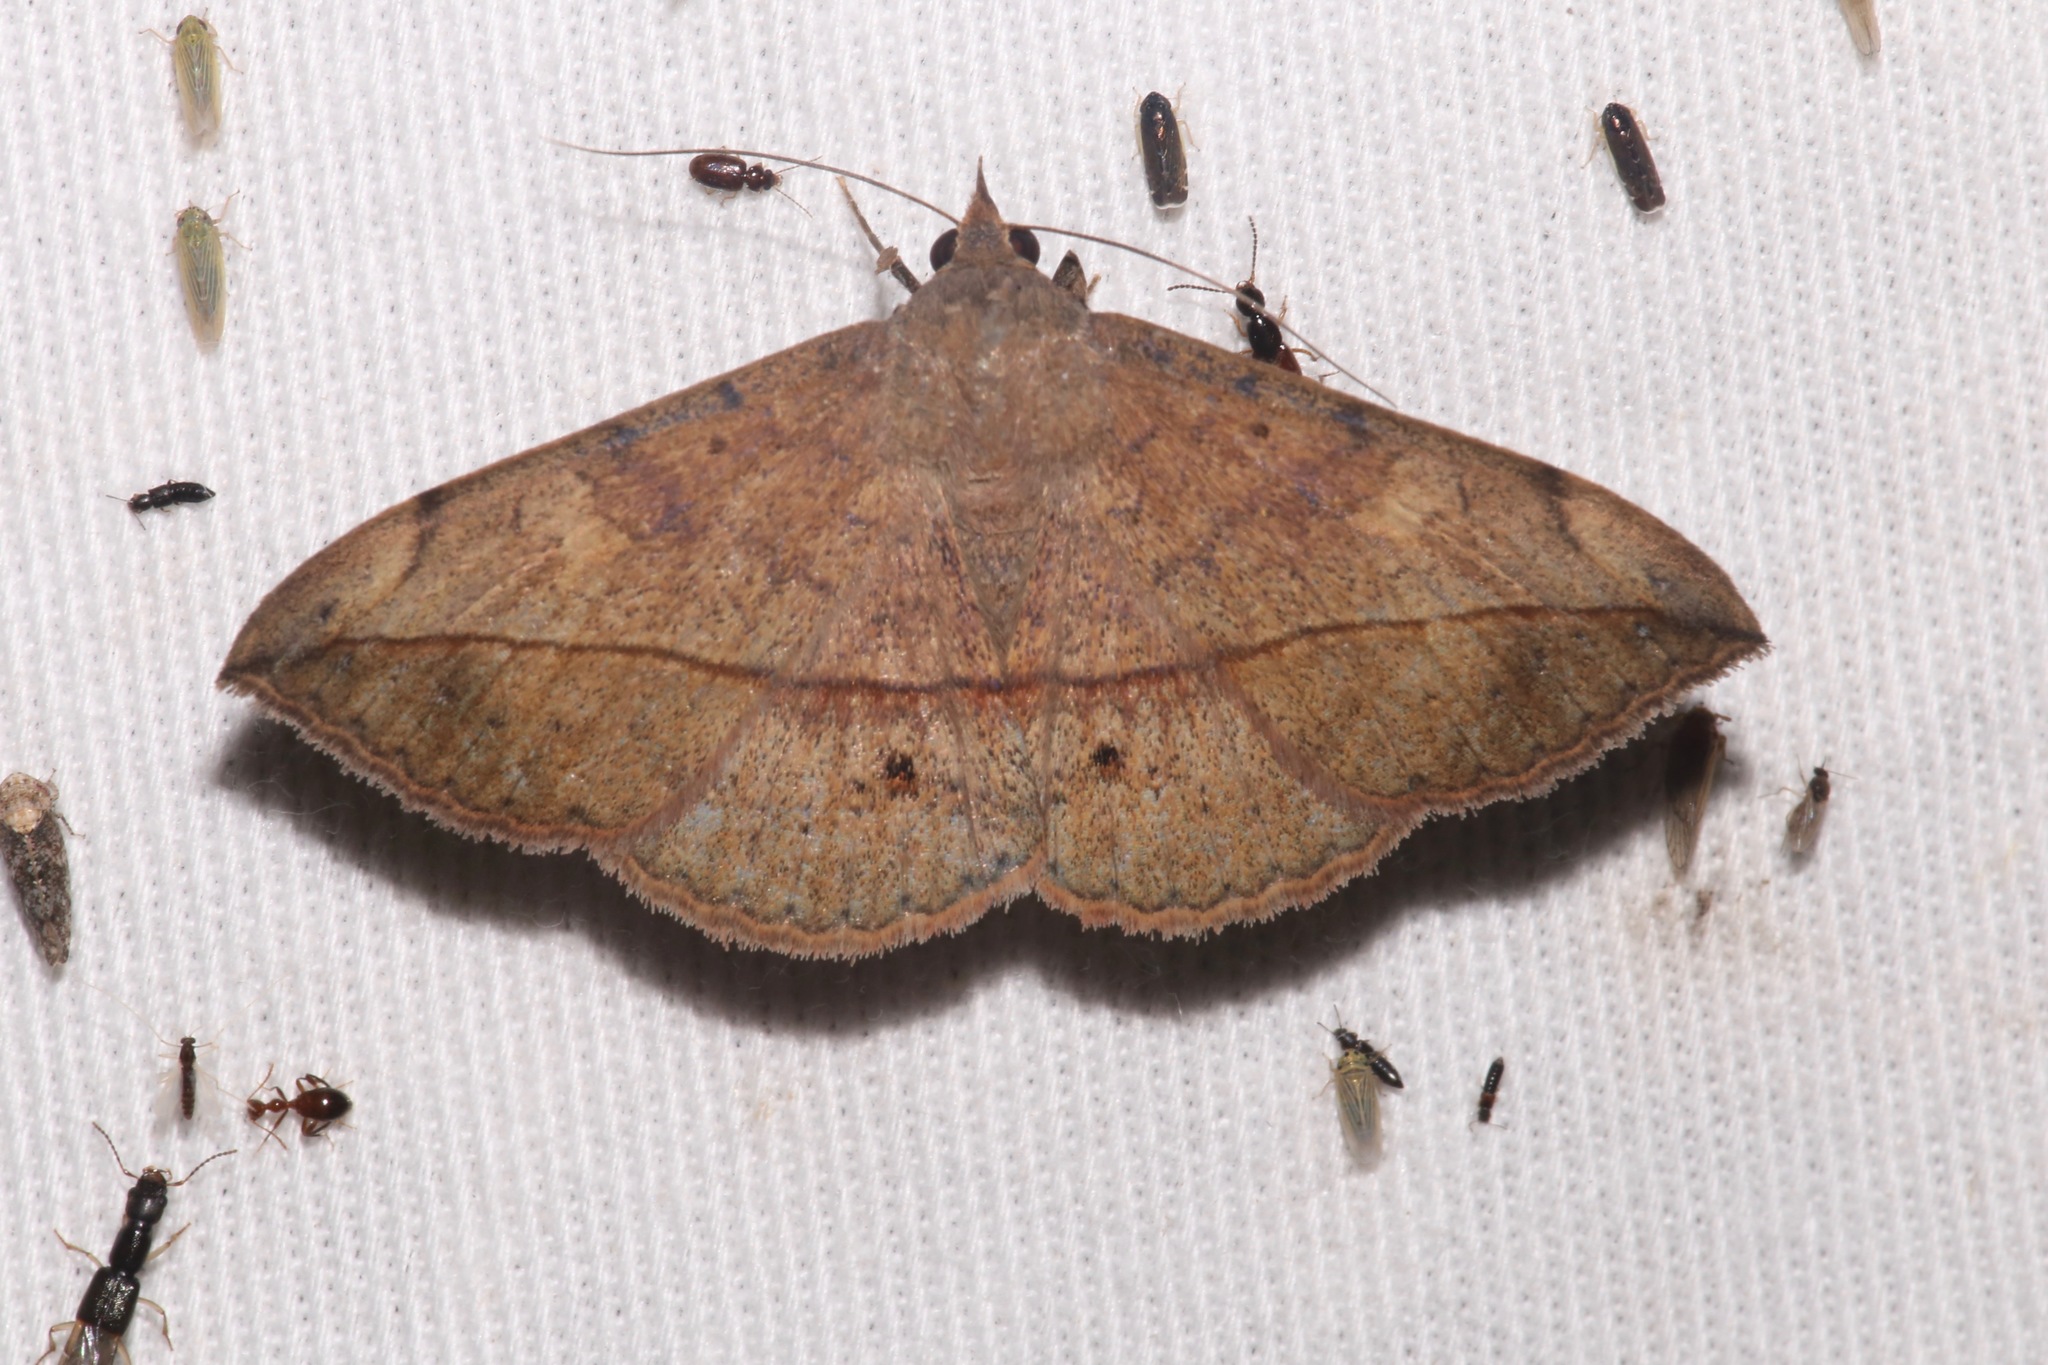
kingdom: Animalia
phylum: Arthropoda
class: Insecta
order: Lepidoptera
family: Erebidae
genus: Anticarsia
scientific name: Anticarsia gemmatalis
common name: Cutworm moth
